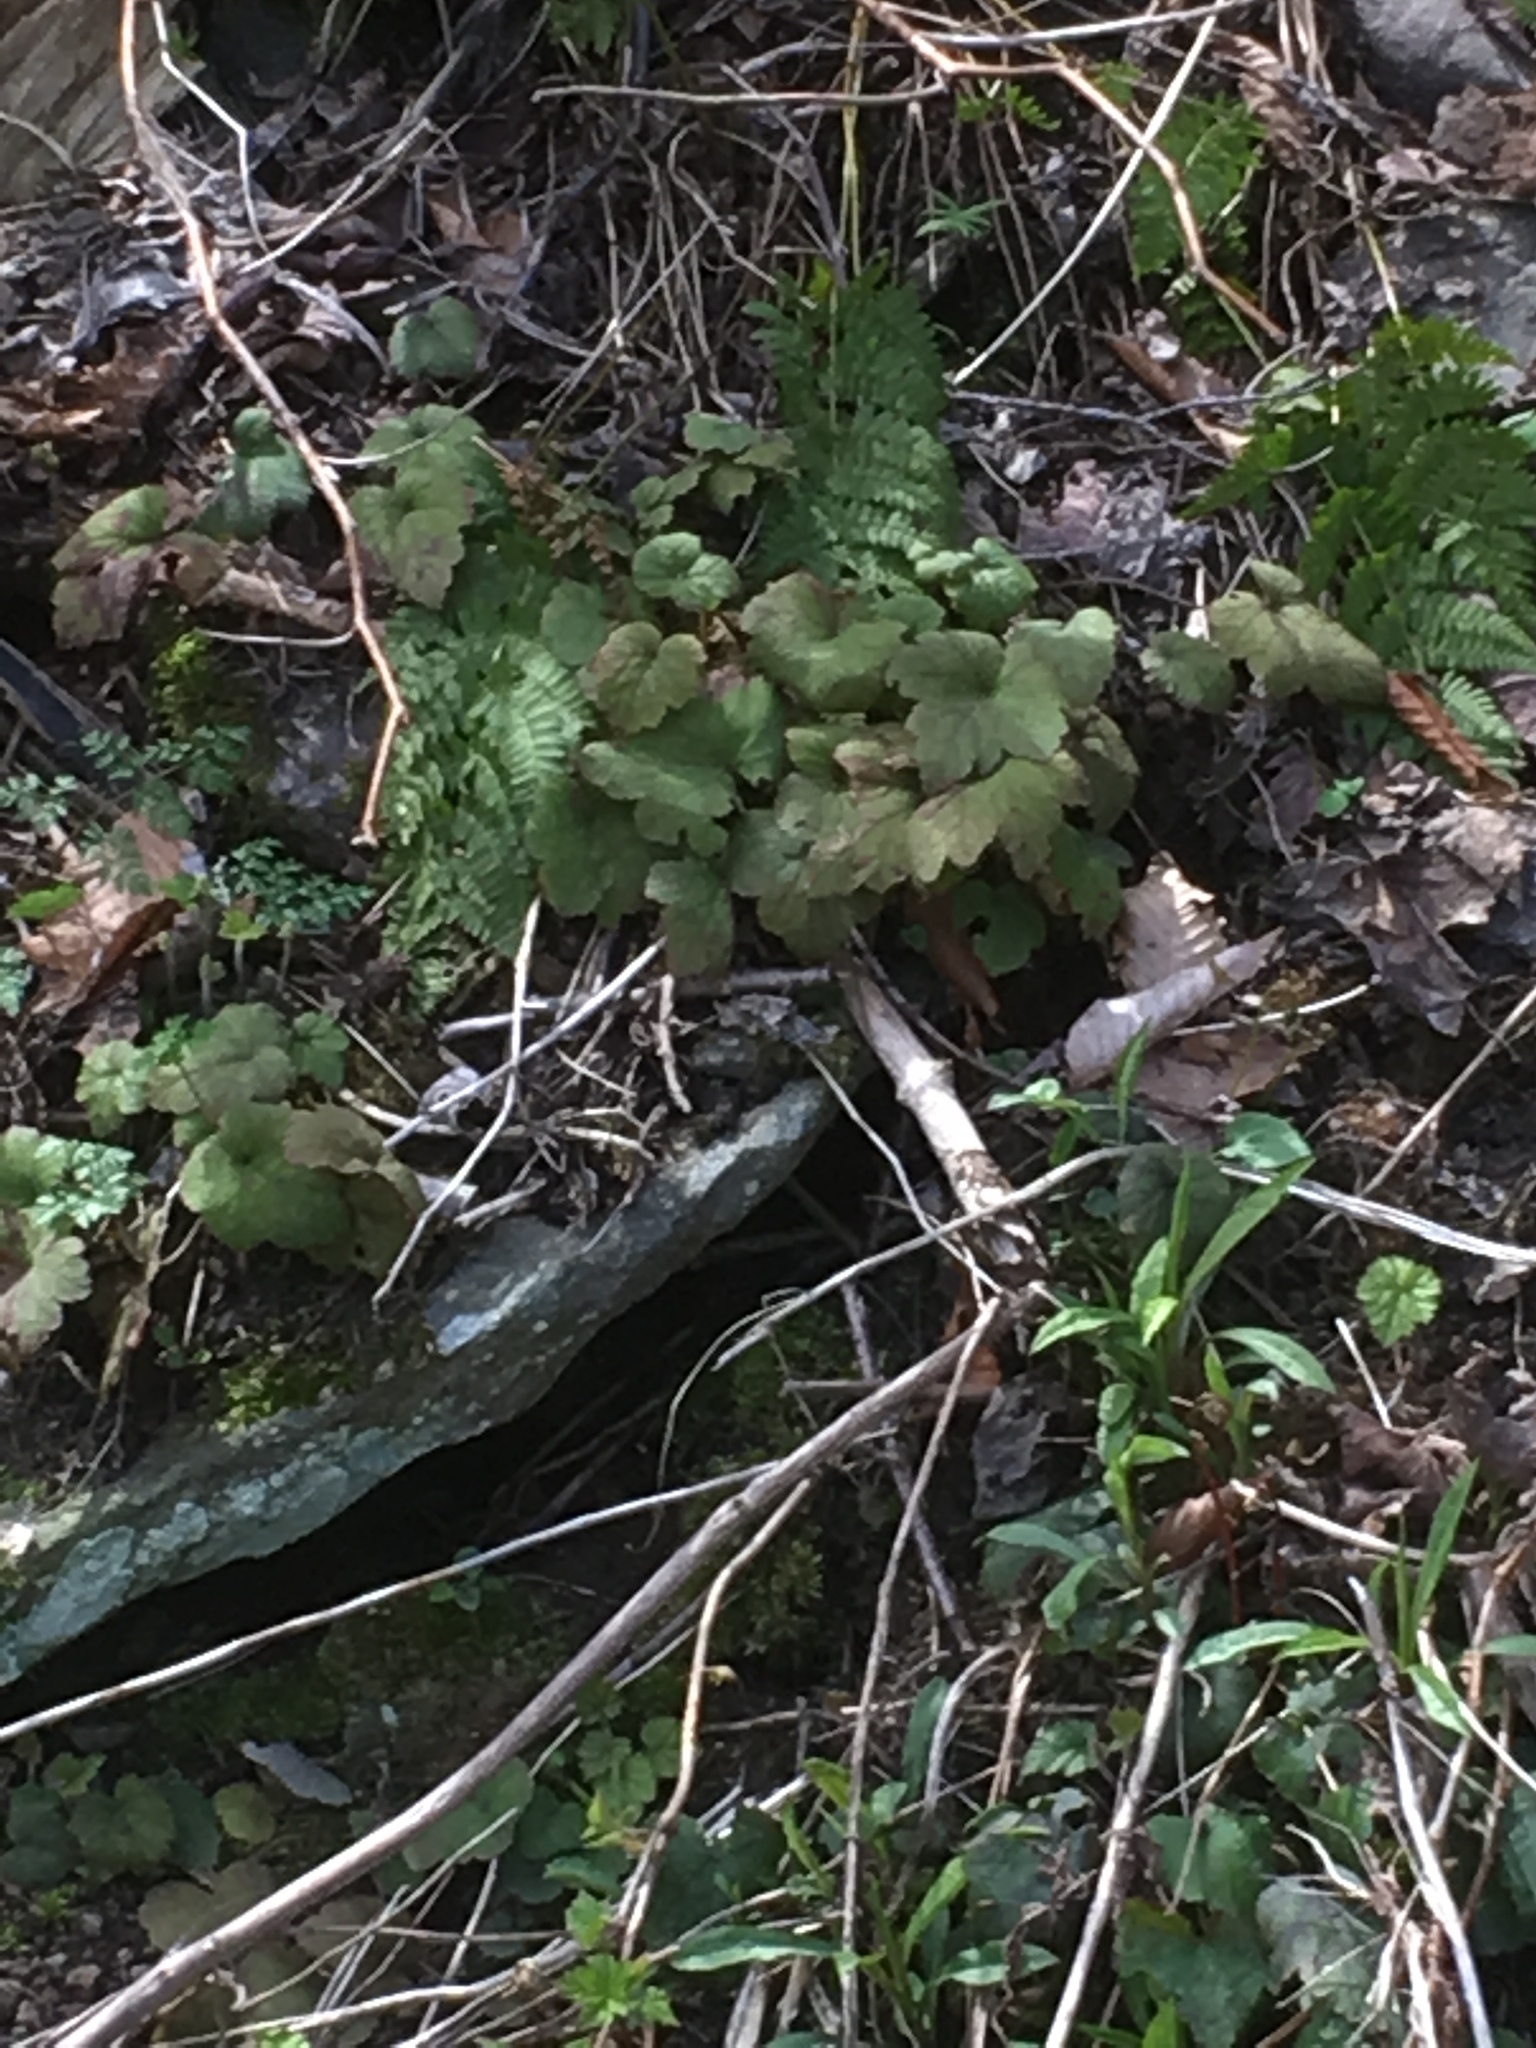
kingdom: Plantae
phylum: Tracheophyta
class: Magnoliopsida
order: Saxifragales
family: Saxifragaceae
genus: Tiarella
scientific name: Tiarella stolonifera
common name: Stoloniferous foamflower
